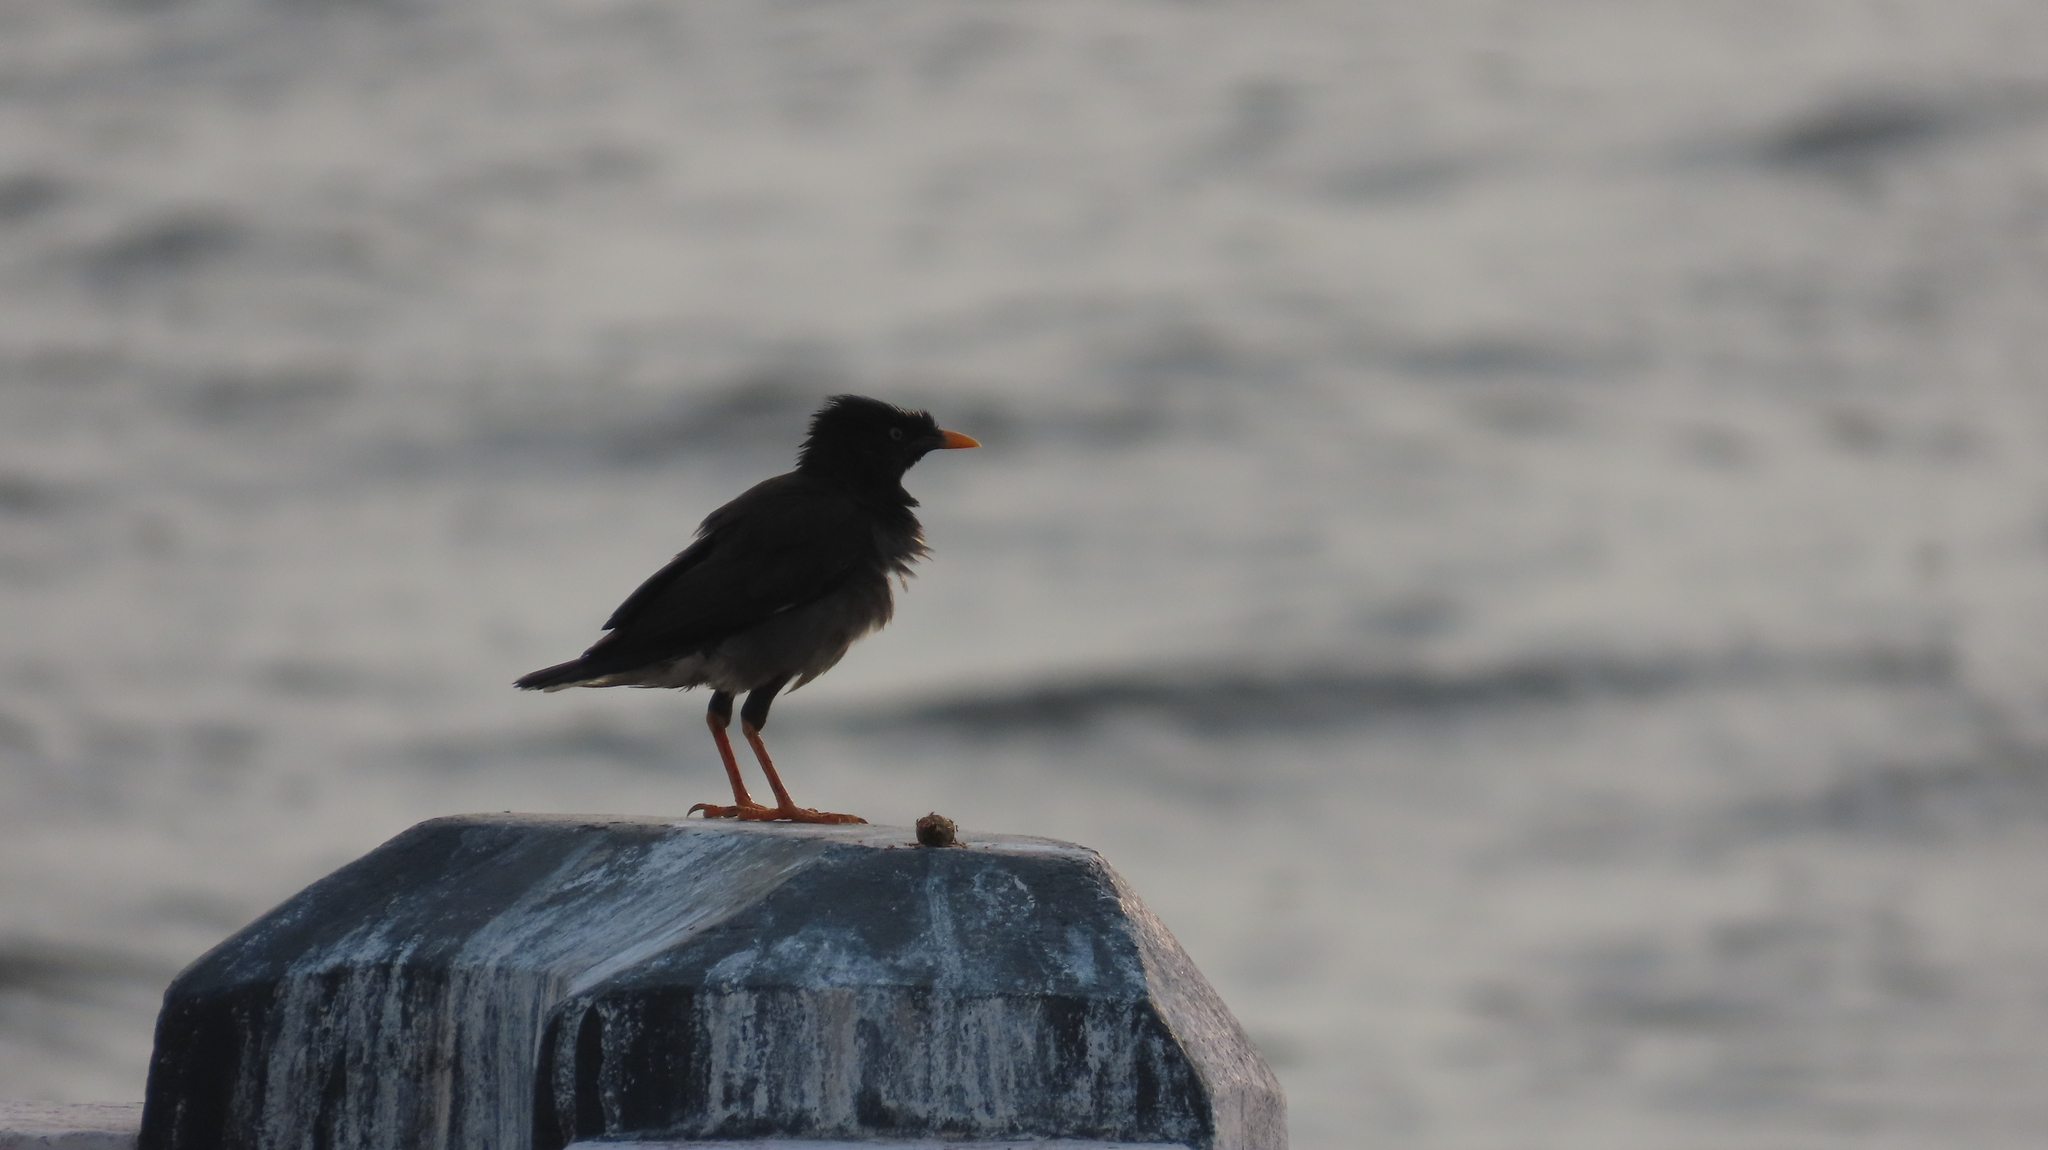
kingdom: Animalia
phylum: Chordata
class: Aves
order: Passeriformes
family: Sturnidae
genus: Acridotheres
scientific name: Acridotheres fuscus
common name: Jungle myna
